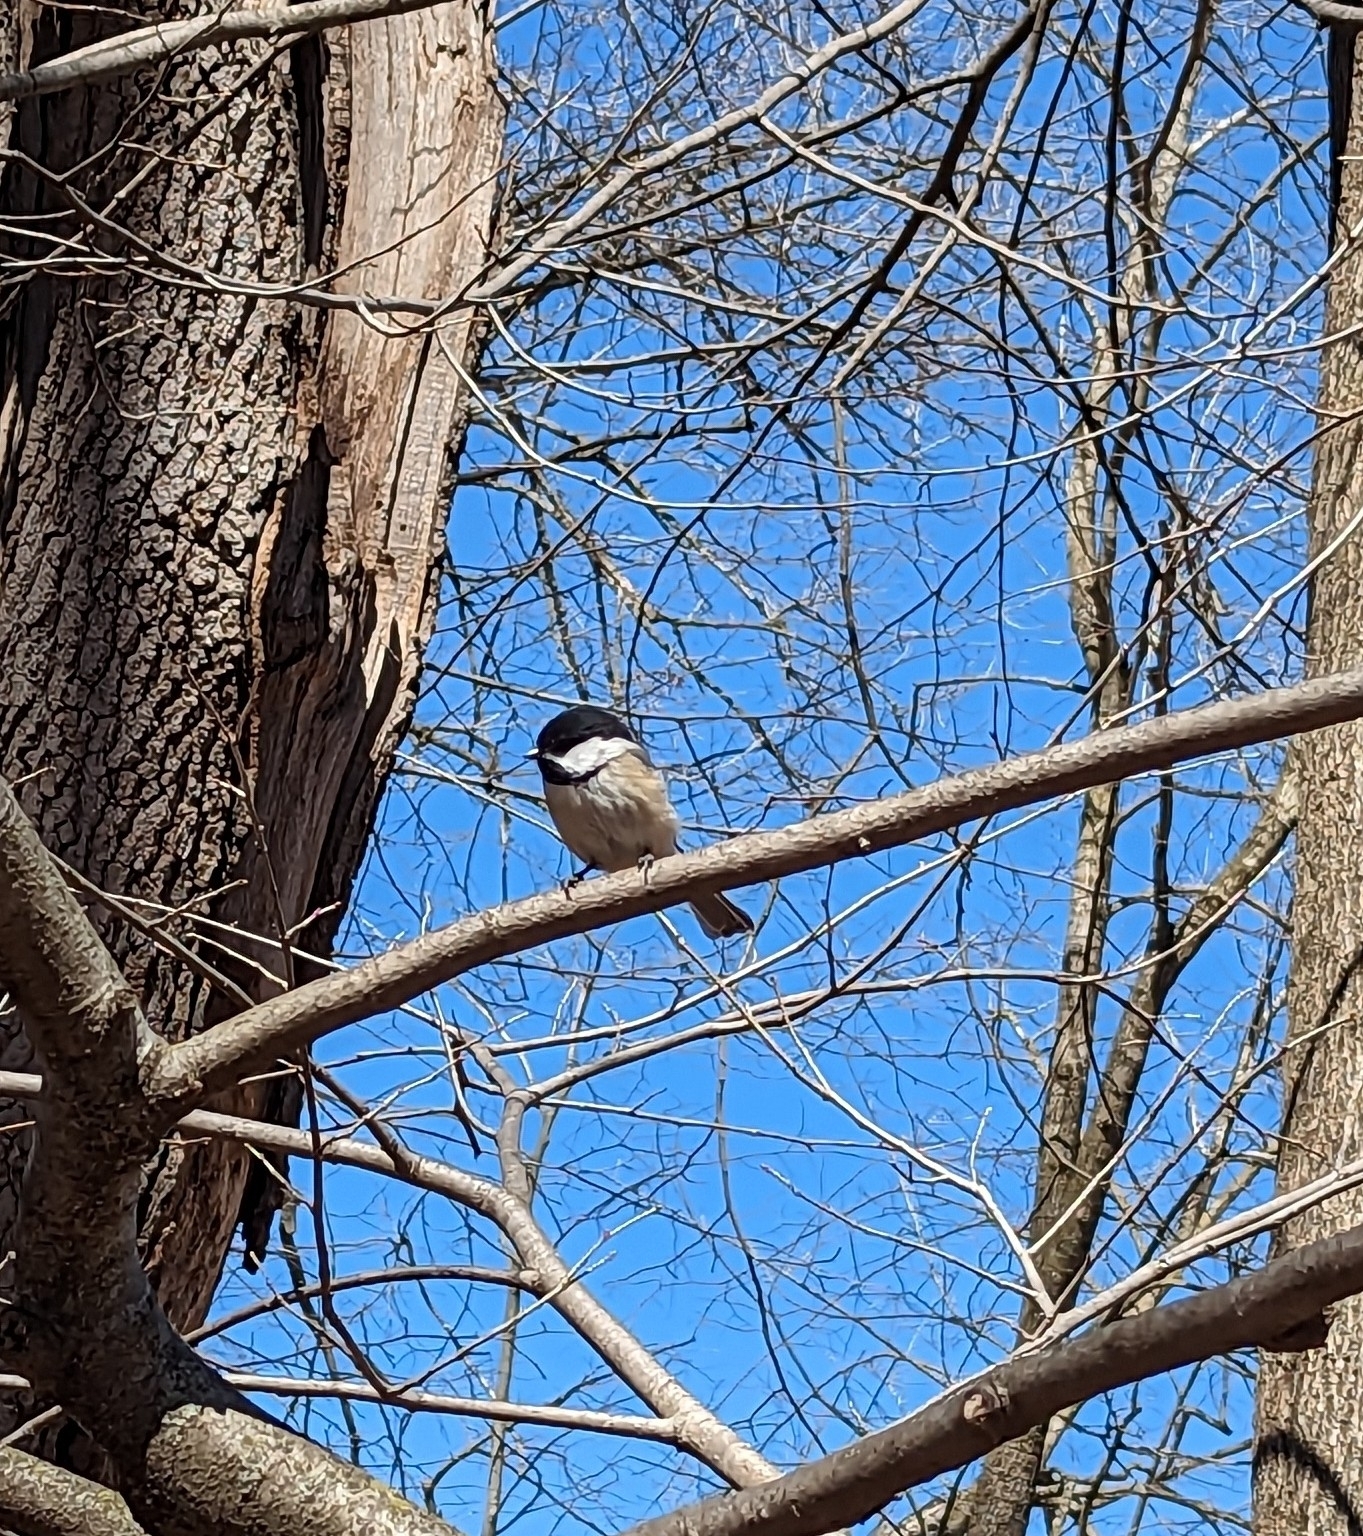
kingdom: Animalia
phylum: Chordata
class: Aves
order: Passeriformes
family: Paridae
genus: Poecile
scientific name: Poecile atricapillus
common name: Black-capped chickadee
